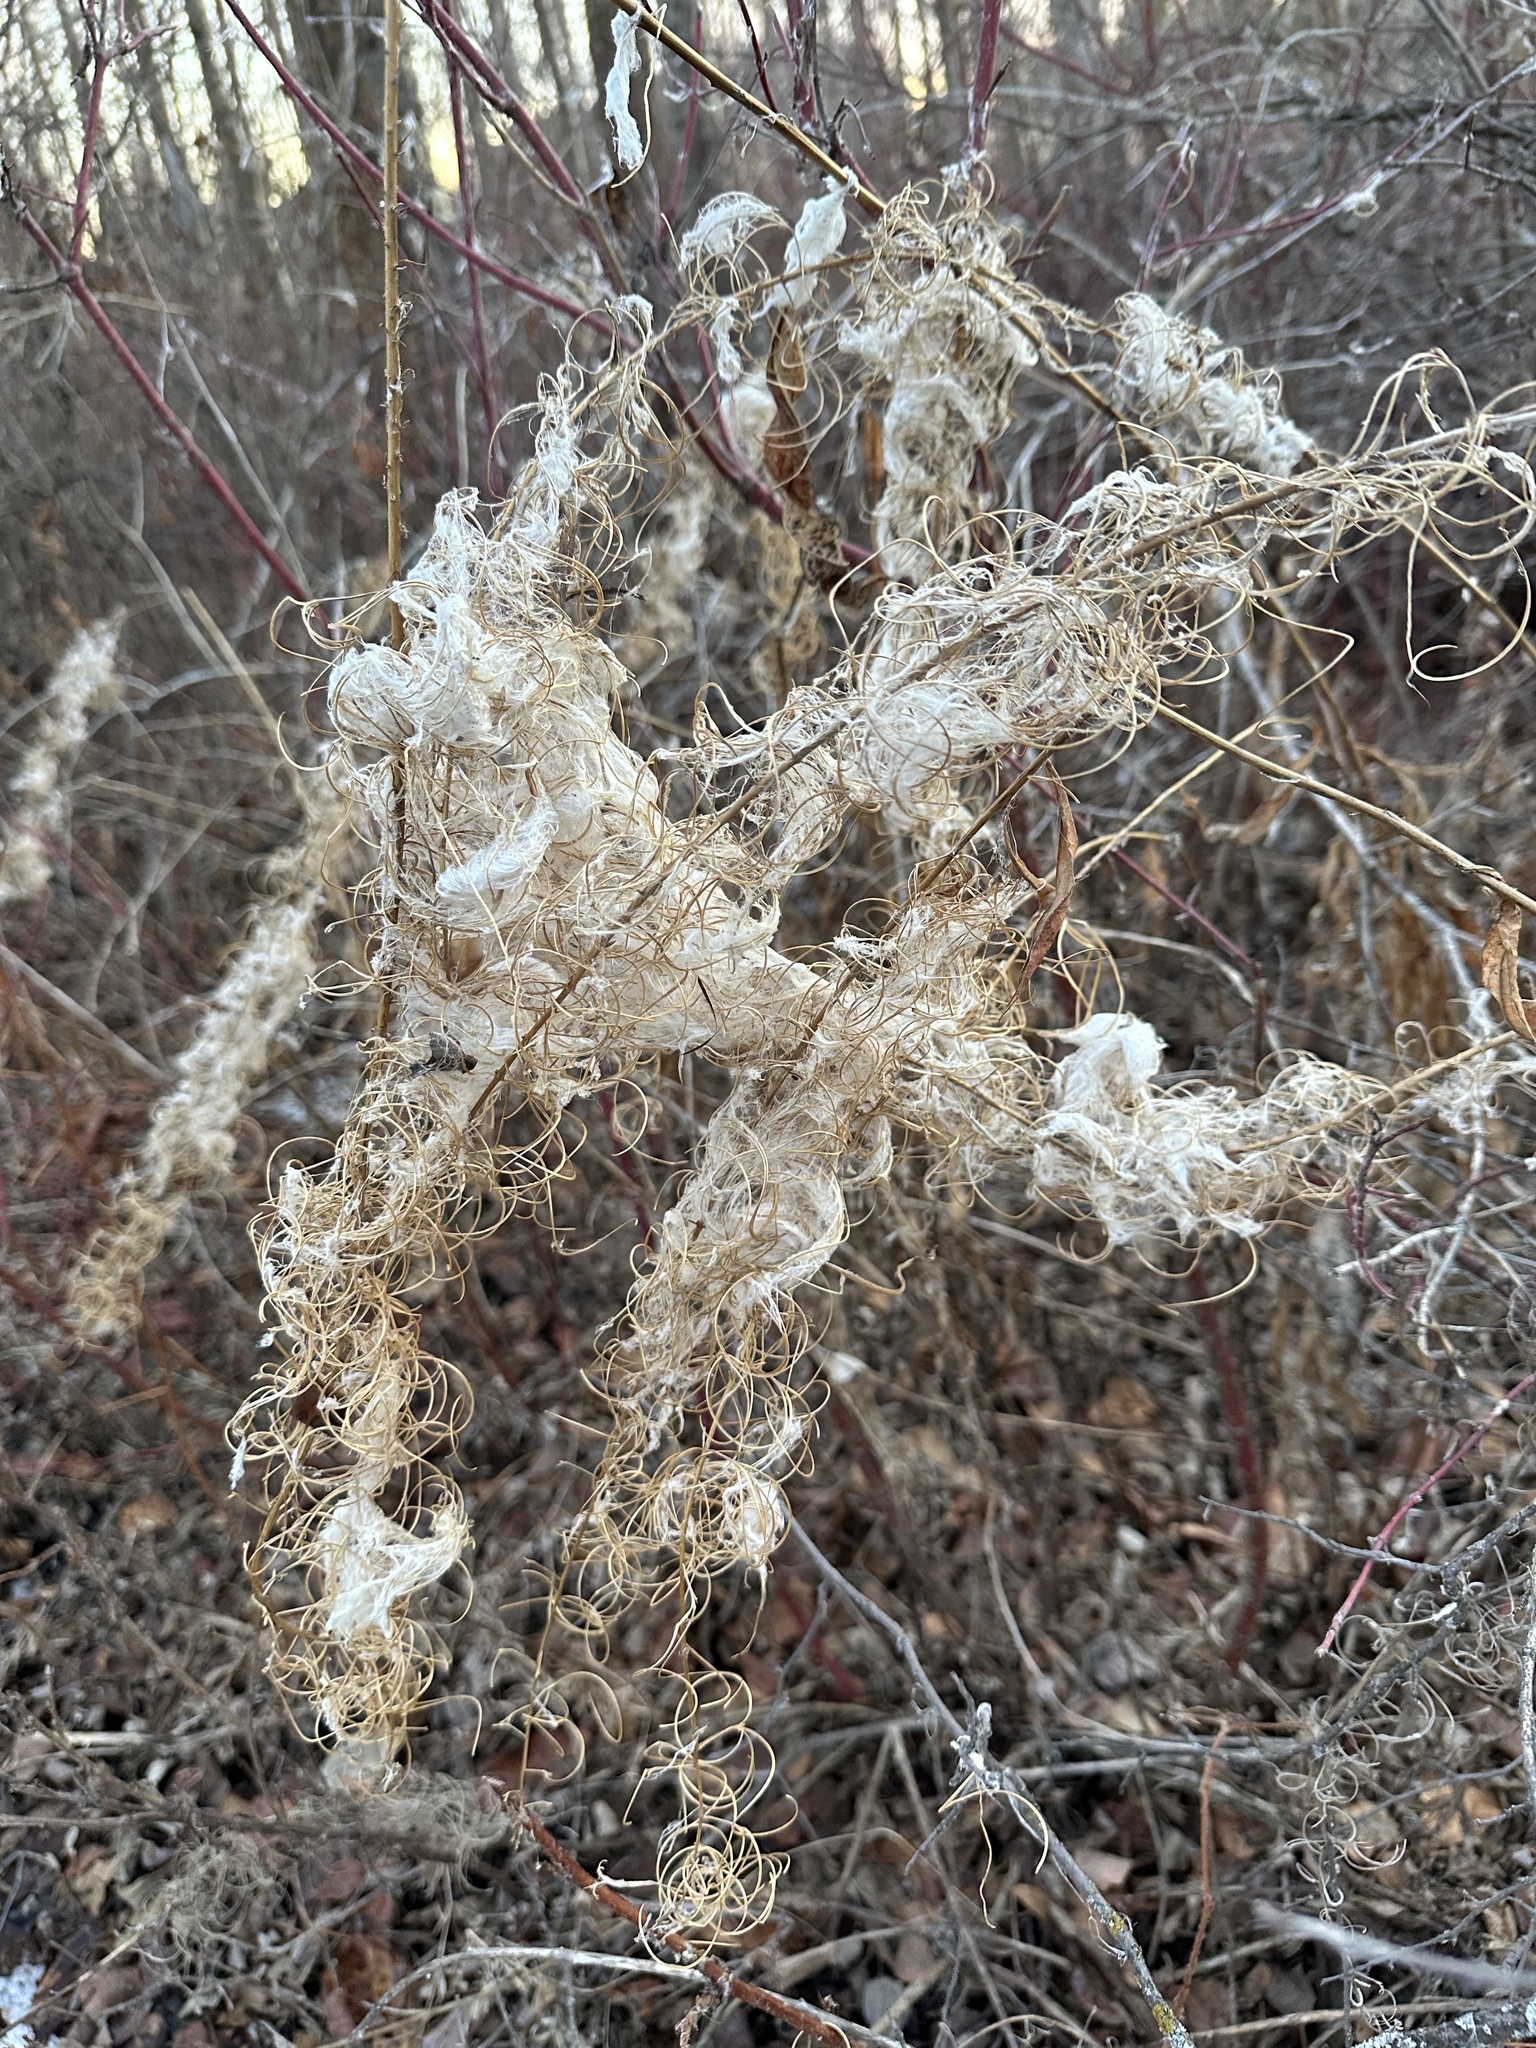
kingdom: Plantae
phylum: Tracheophyta
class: Magnoliopsida
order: Myrtales
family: Onagraceae
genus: Chamaenerion
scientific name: Chamaenerion angustifolium
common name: Fireweed
